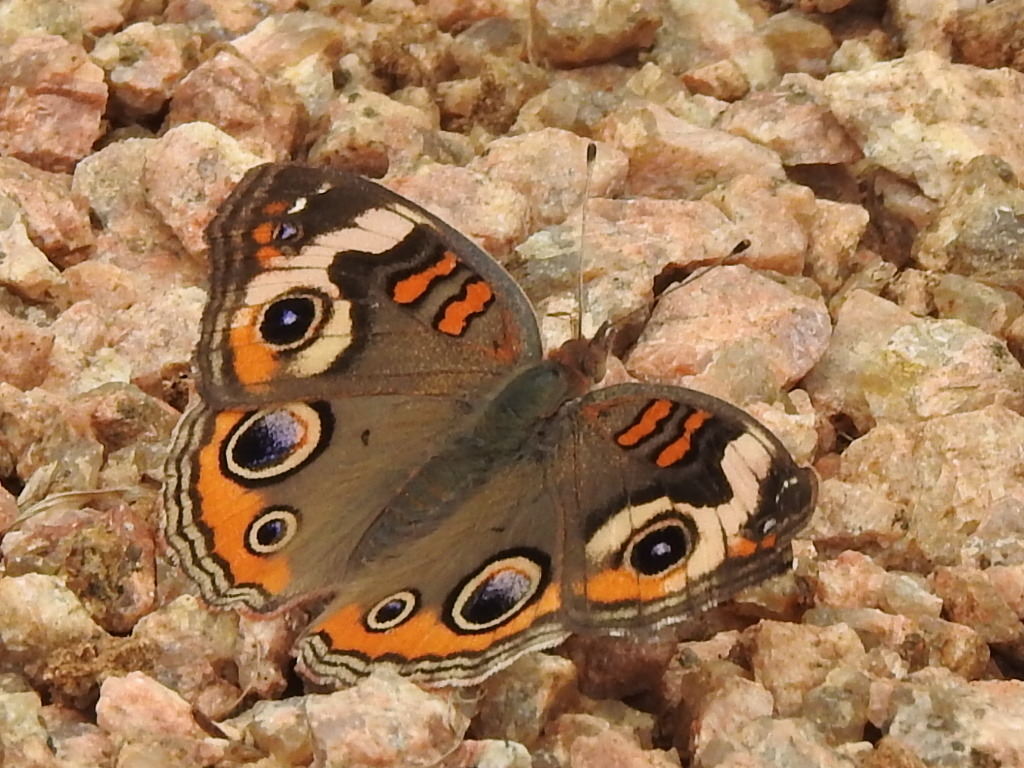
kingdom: Animalia
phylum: Arthropoda
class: Insecta
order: Lepidoptera
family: Nymphalidae
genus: Junonia
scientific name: Junonia coenia
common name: Common buckeye
